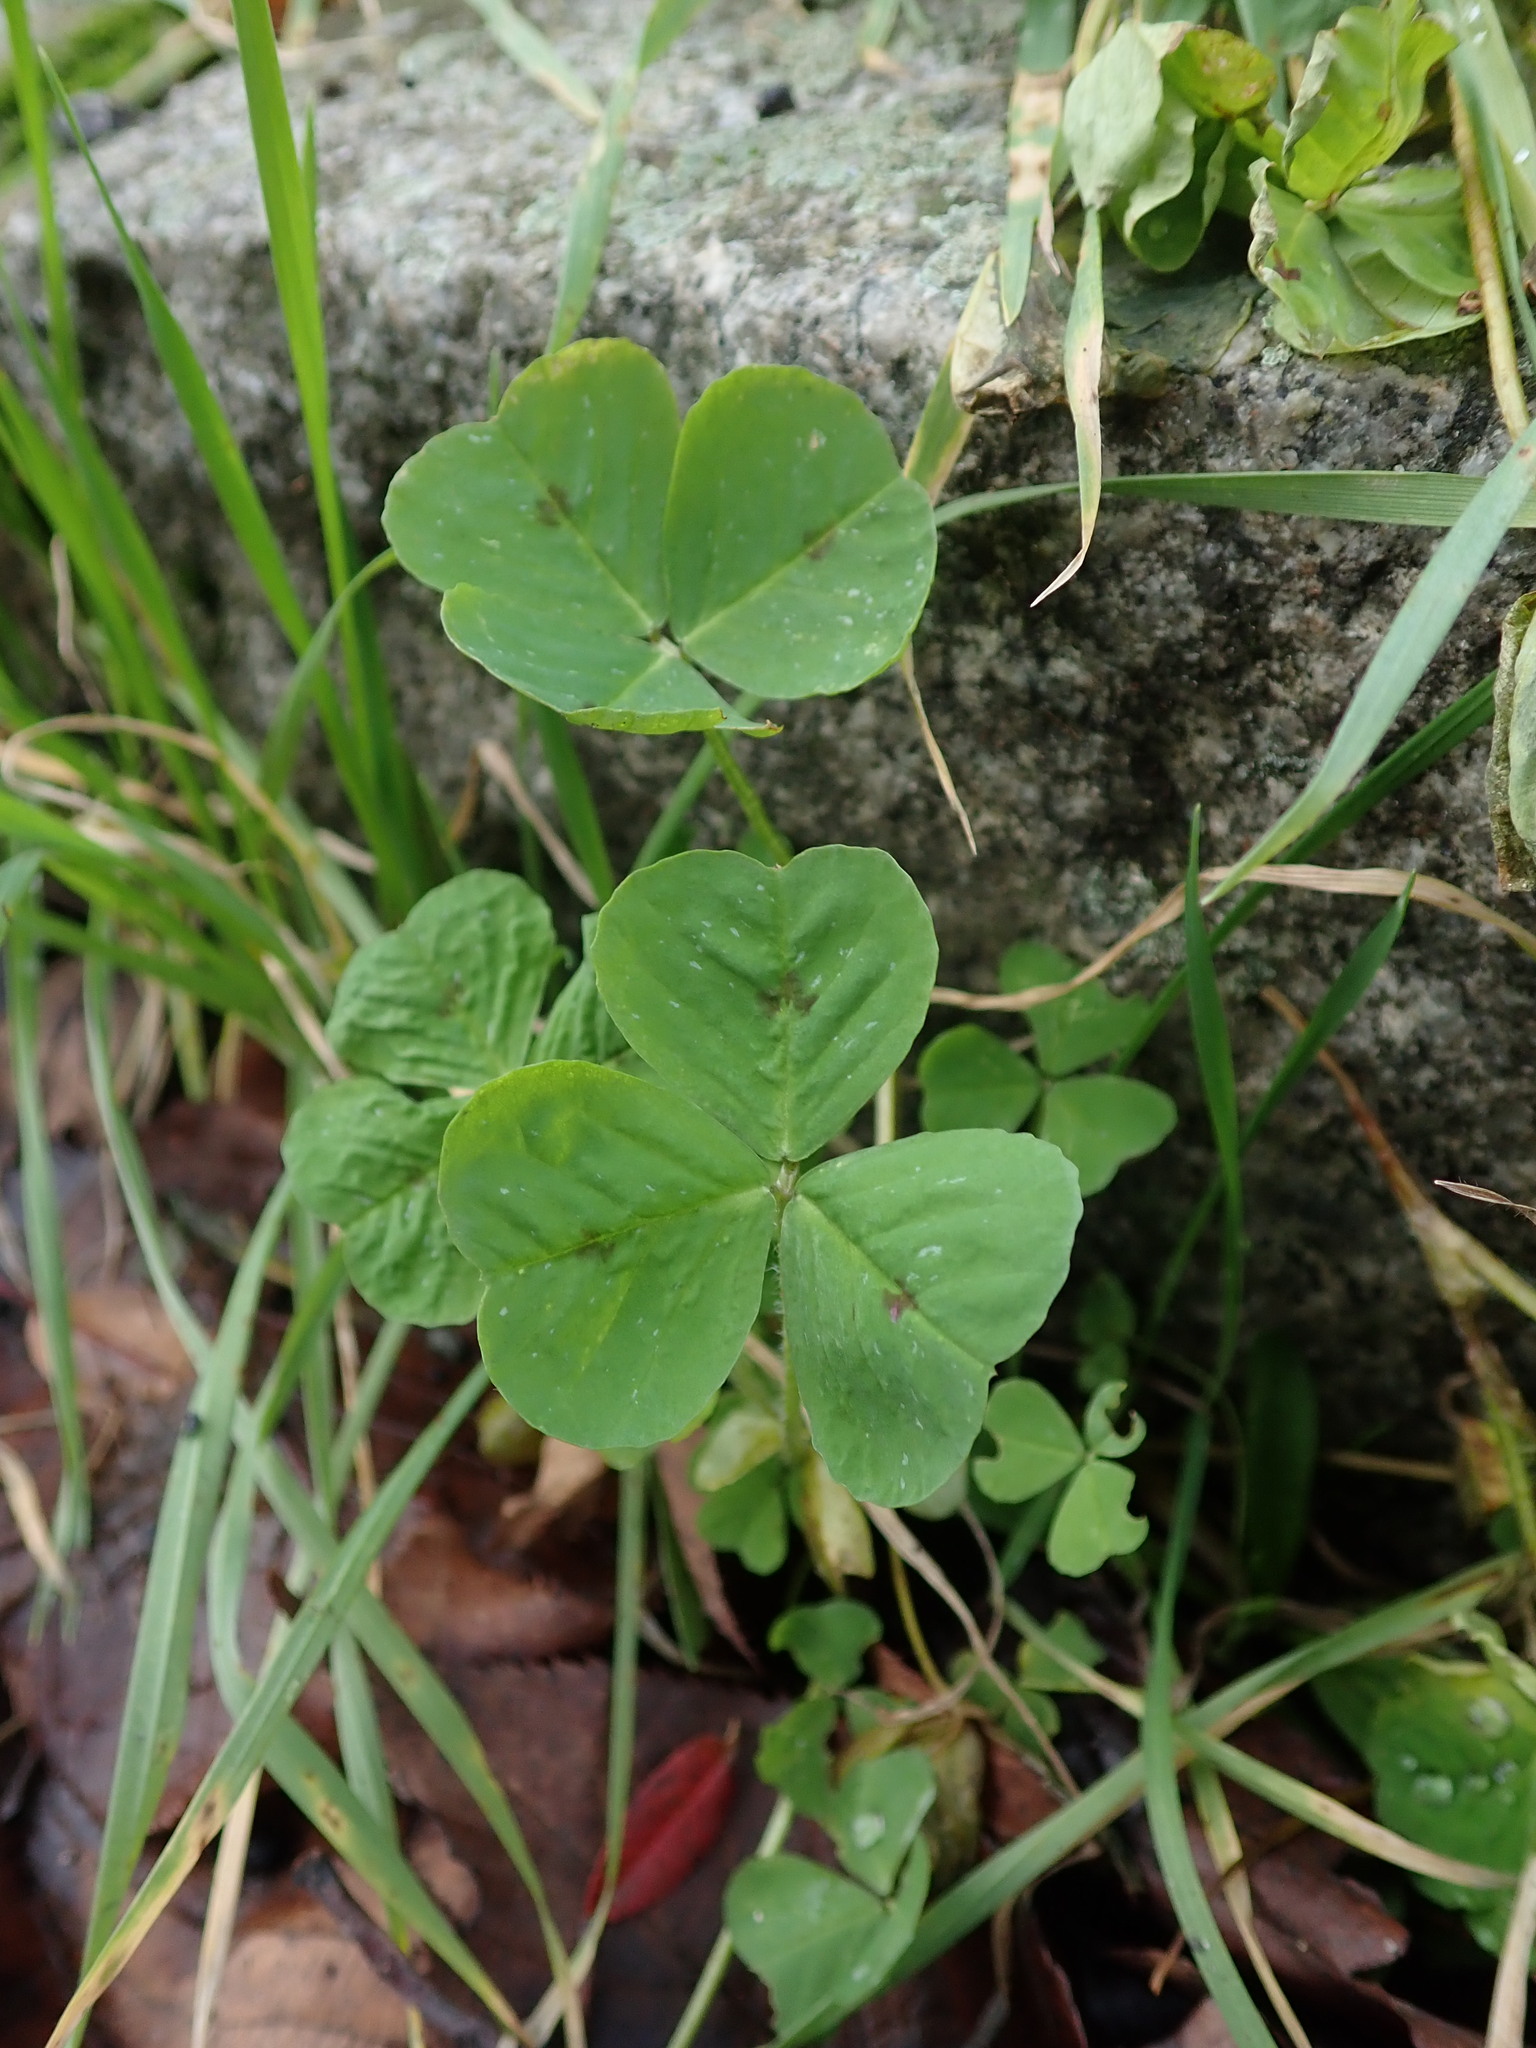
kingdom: Plantae
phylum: Tracheophyta
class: Magnoliopsida
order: Fabales
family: Fabaceae
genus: Medicago
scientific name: Medicago arabica
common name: Spotted medick
